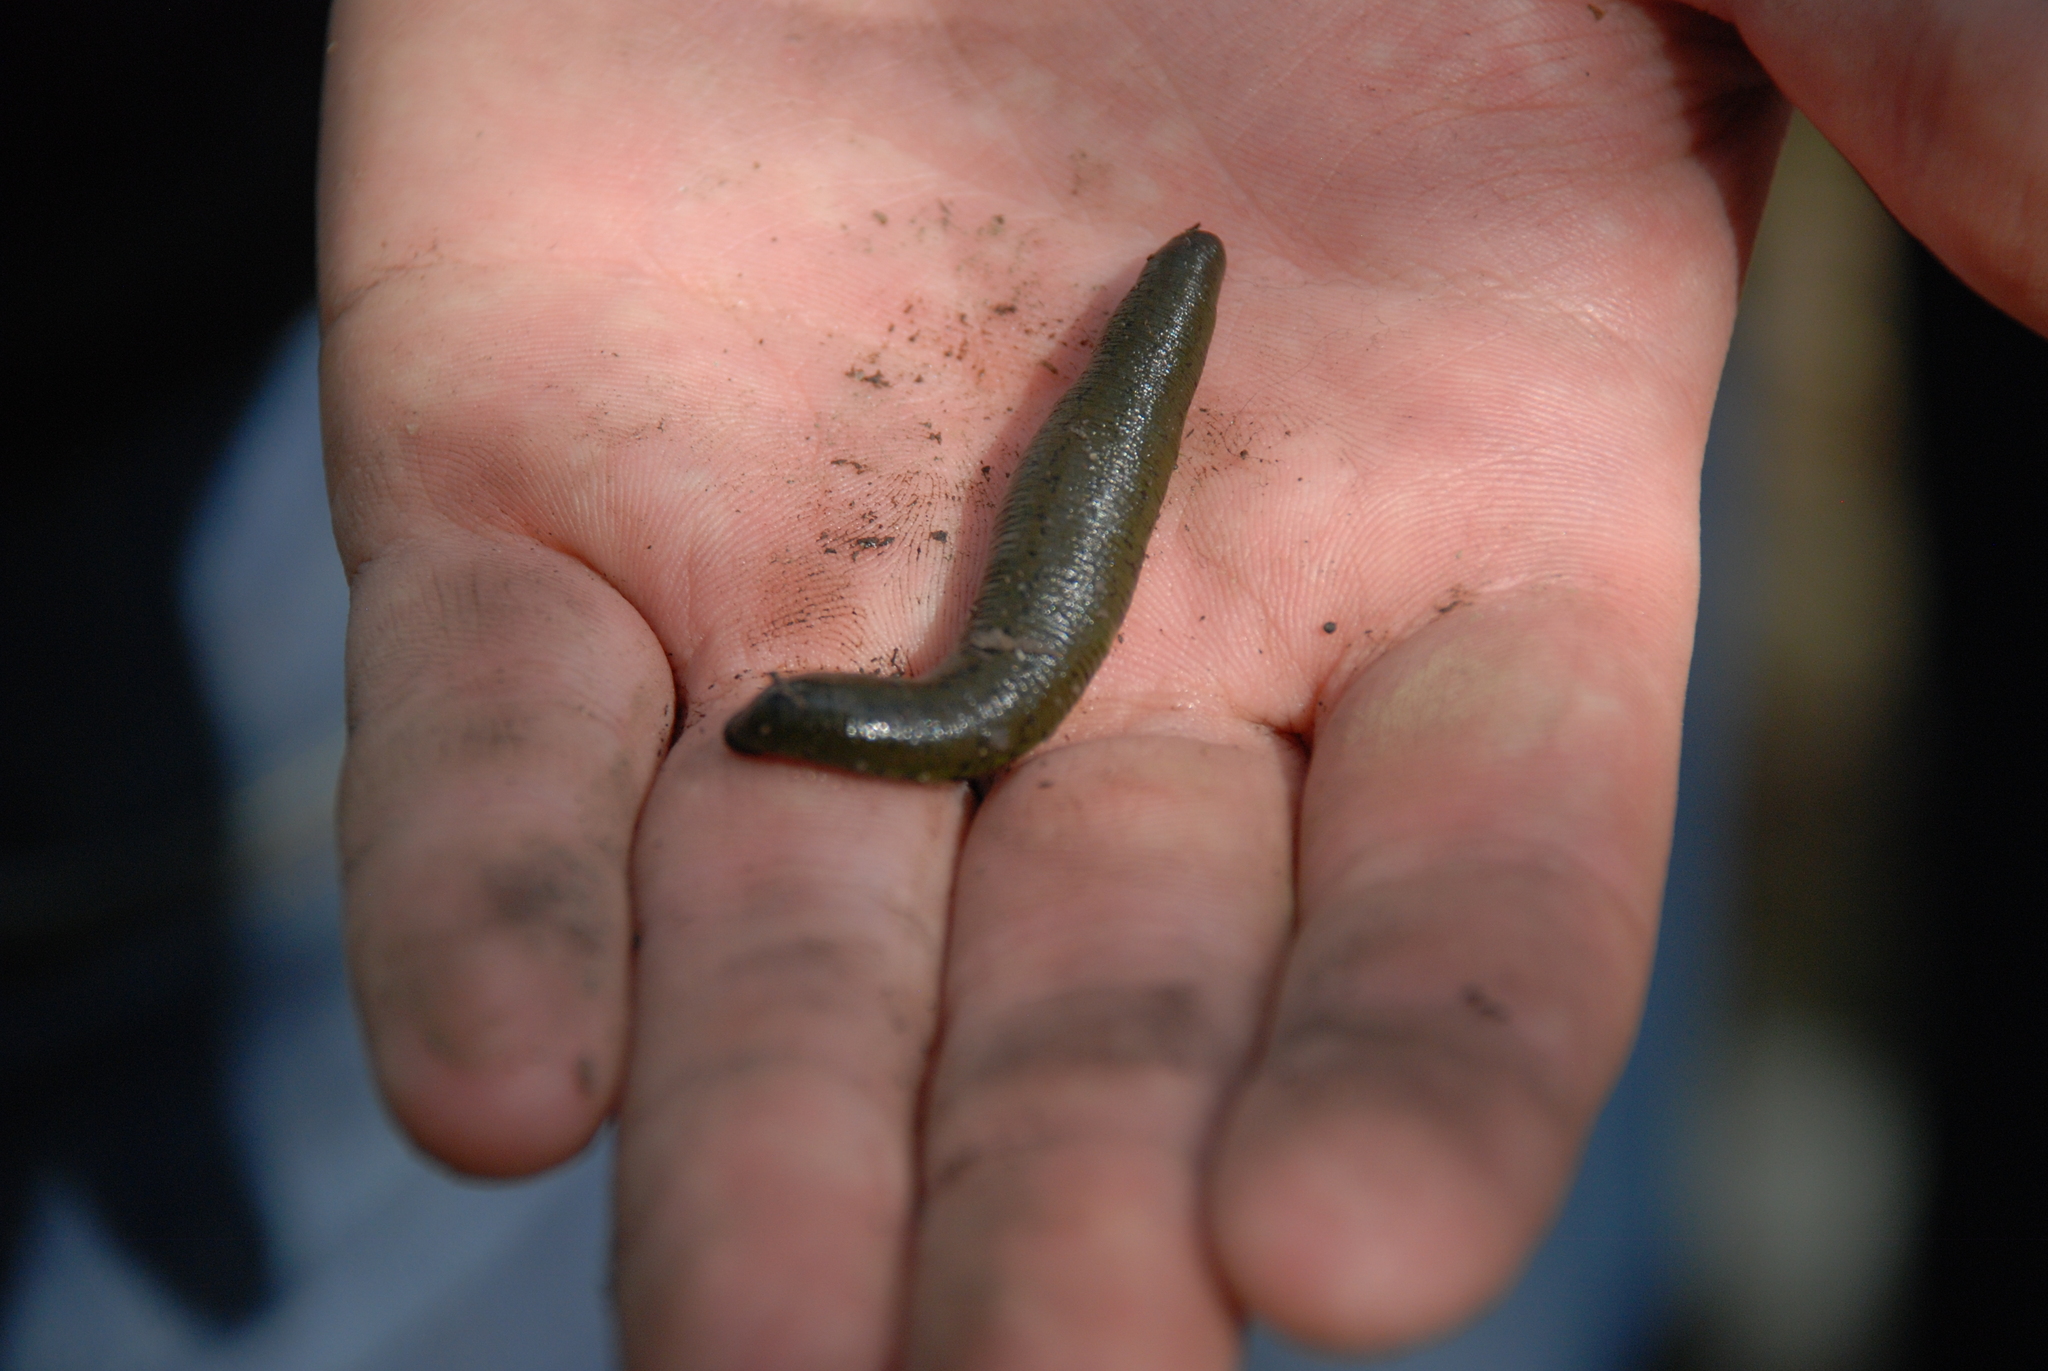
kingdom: Animalia
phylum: Annelida
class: Clitellata
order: Arhynchobdellida
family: Haemopidae
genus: Haemopis
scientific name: Haemopis sanguisuga
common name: Horse leech
